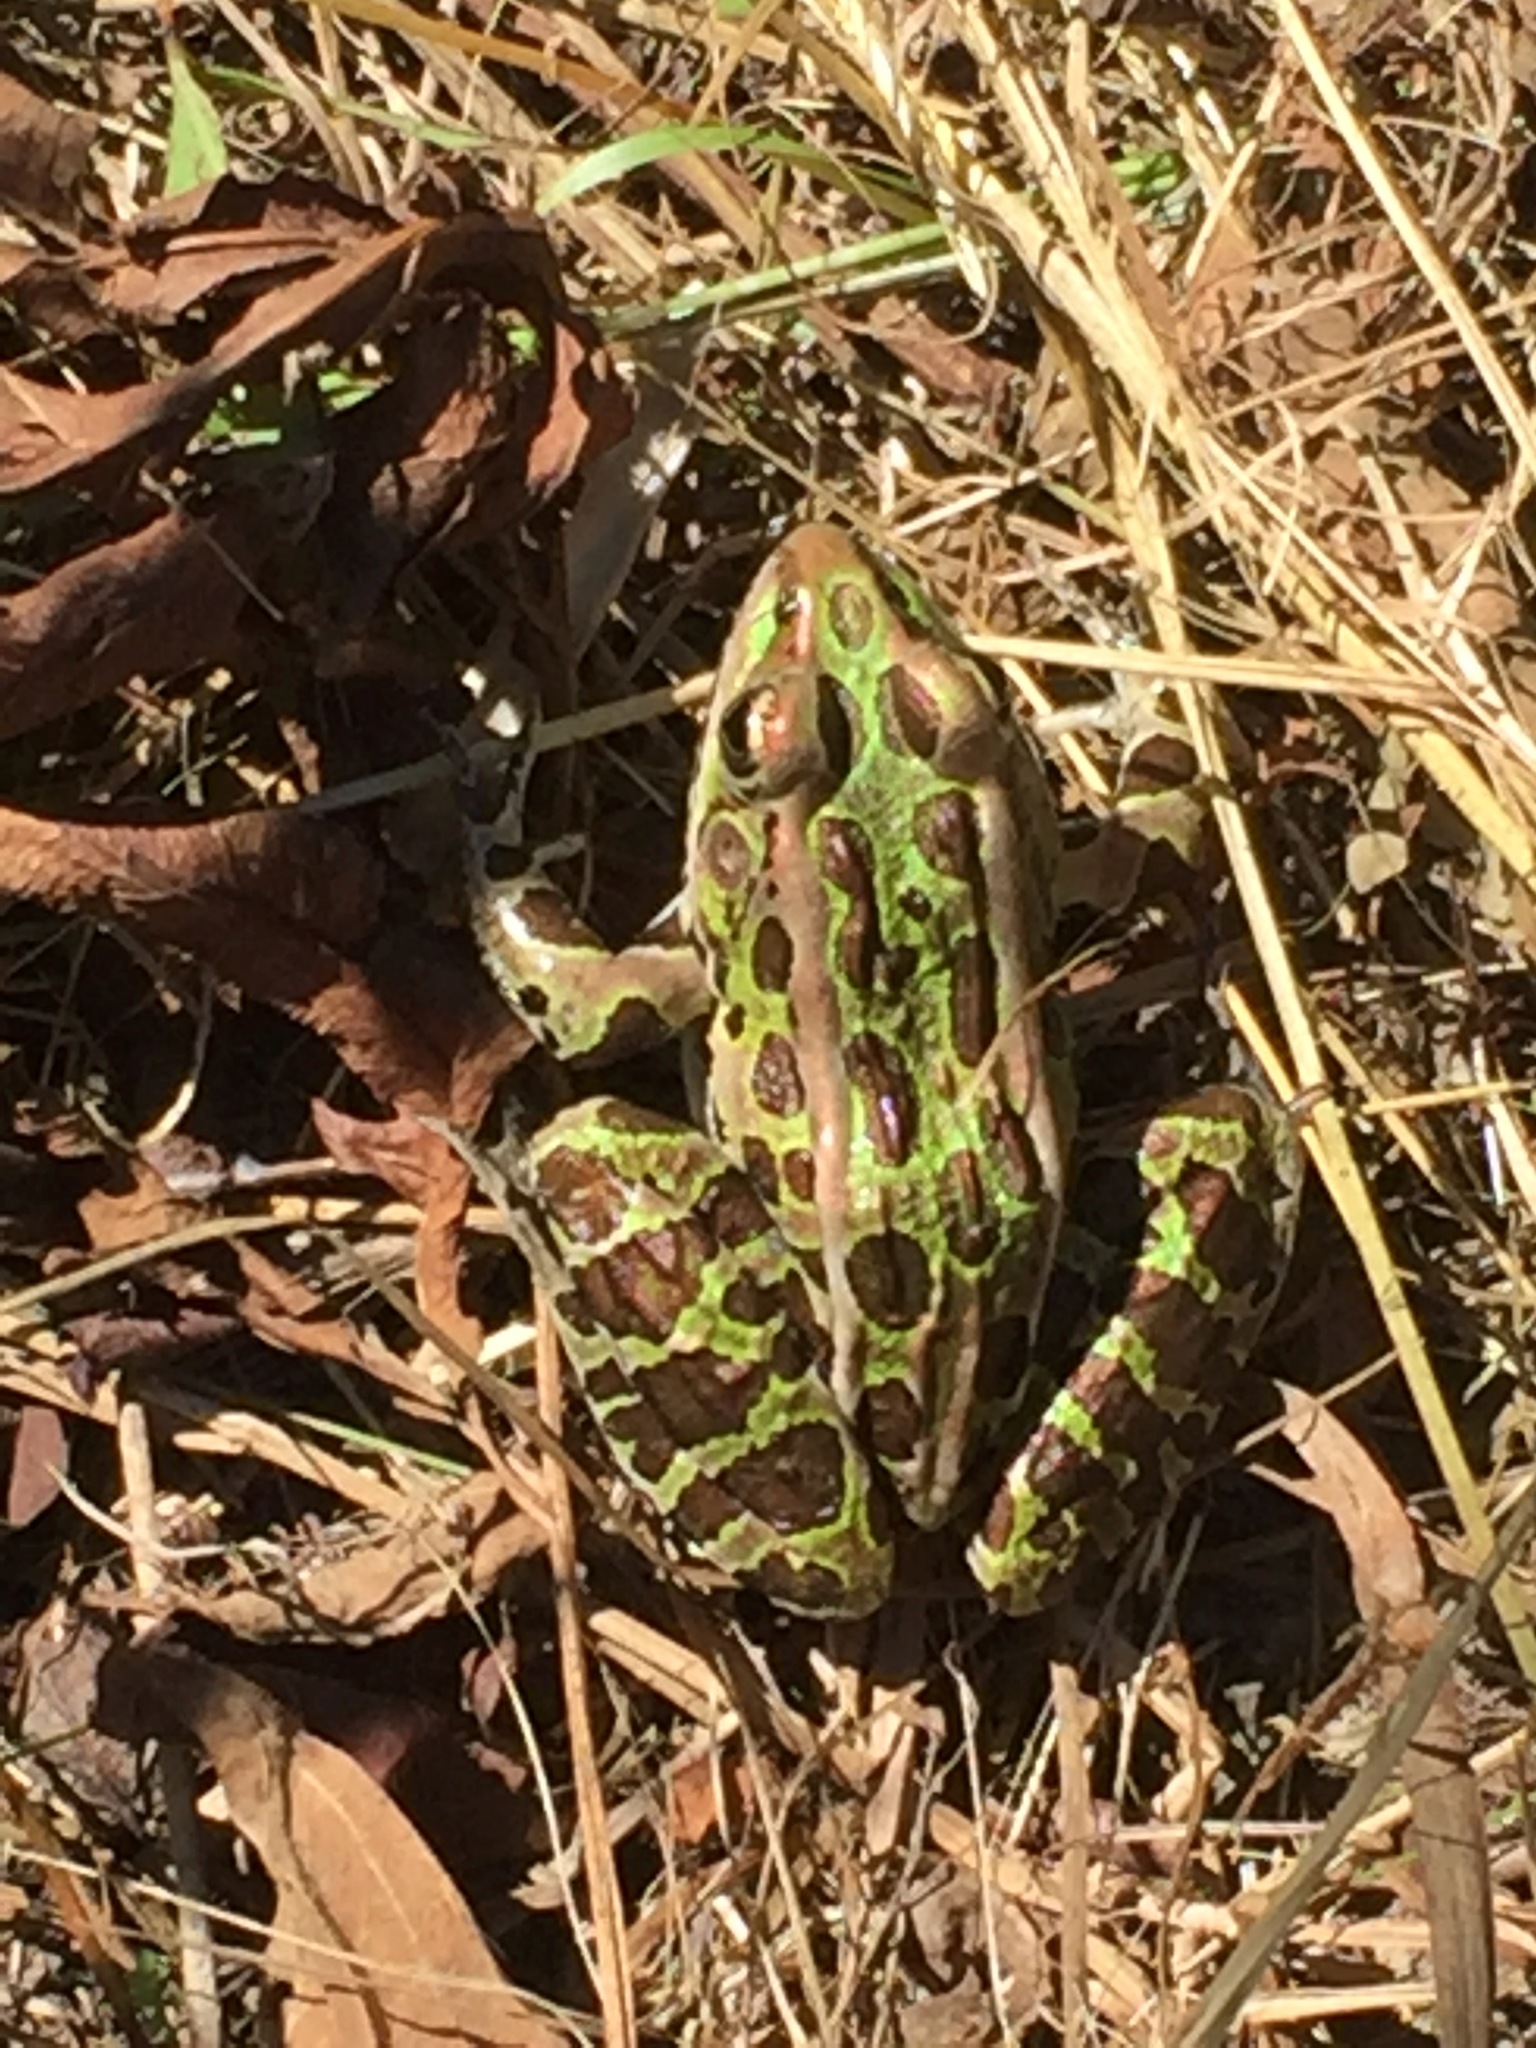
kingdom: Animalia
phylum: Chordata
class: Amphibia
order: Anura
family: Ranidae
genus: Lithobates
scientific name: Lithobates pipiens
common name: Northern leopard frog
